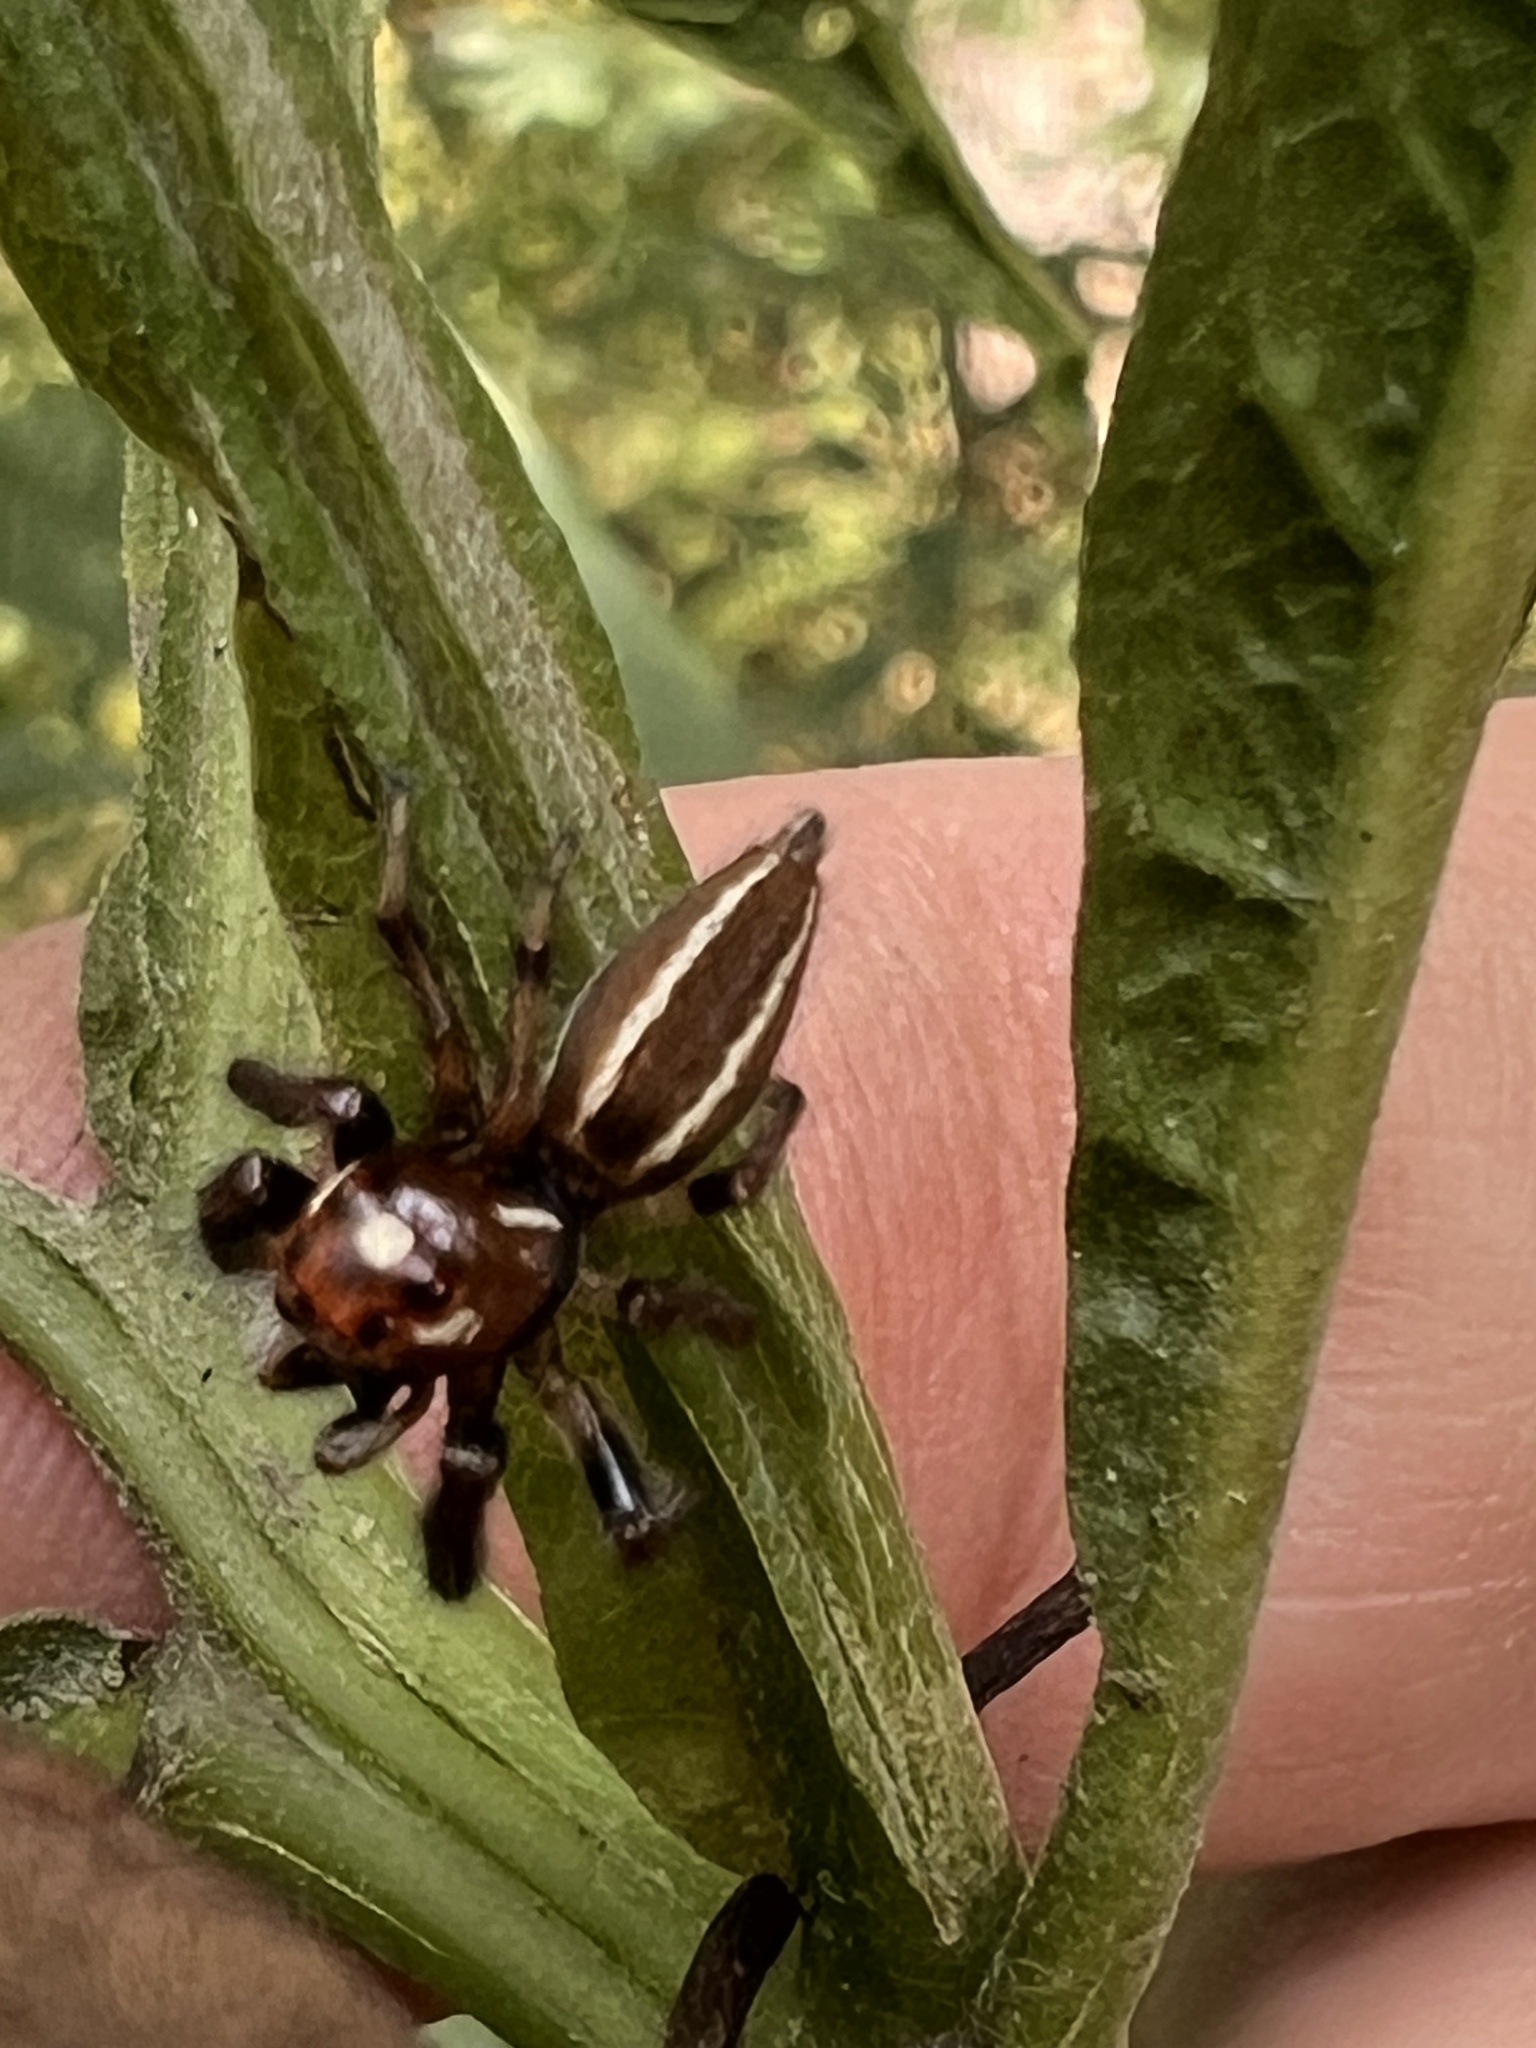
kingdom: Animalia
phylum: Arthropoda
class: Arachnida
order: Araneae
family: Salticidae
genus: Colonus
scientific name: Colonus sylvanus
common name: Jumping spiders
